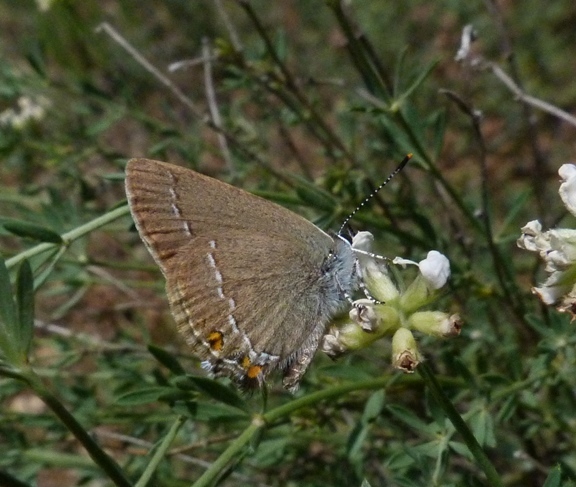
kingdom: Animalia
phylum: Arthropoda
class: Insecta
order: Lepidoptera
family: Lycaenidae
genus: Strymon
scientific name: Strymon acaciae
